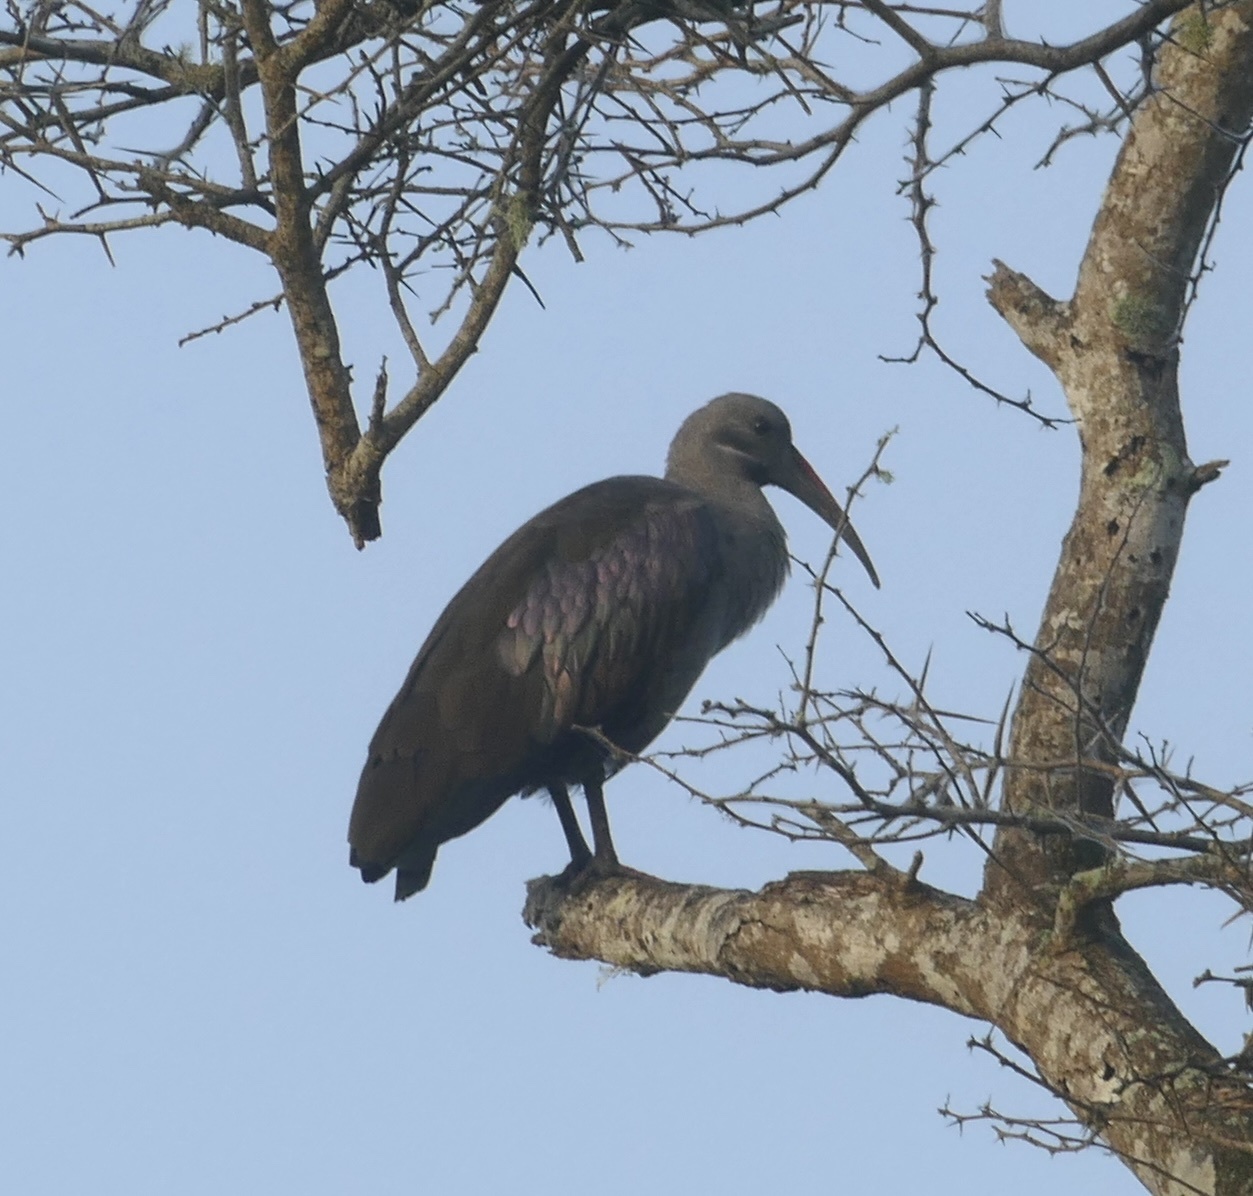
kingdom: Animalia
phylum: Chordata
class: Aves
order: Pelecaniformes
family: Threskiornithidae
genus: Bostrychia
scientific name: Bostrychia hagedash
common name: Hadada ibis
